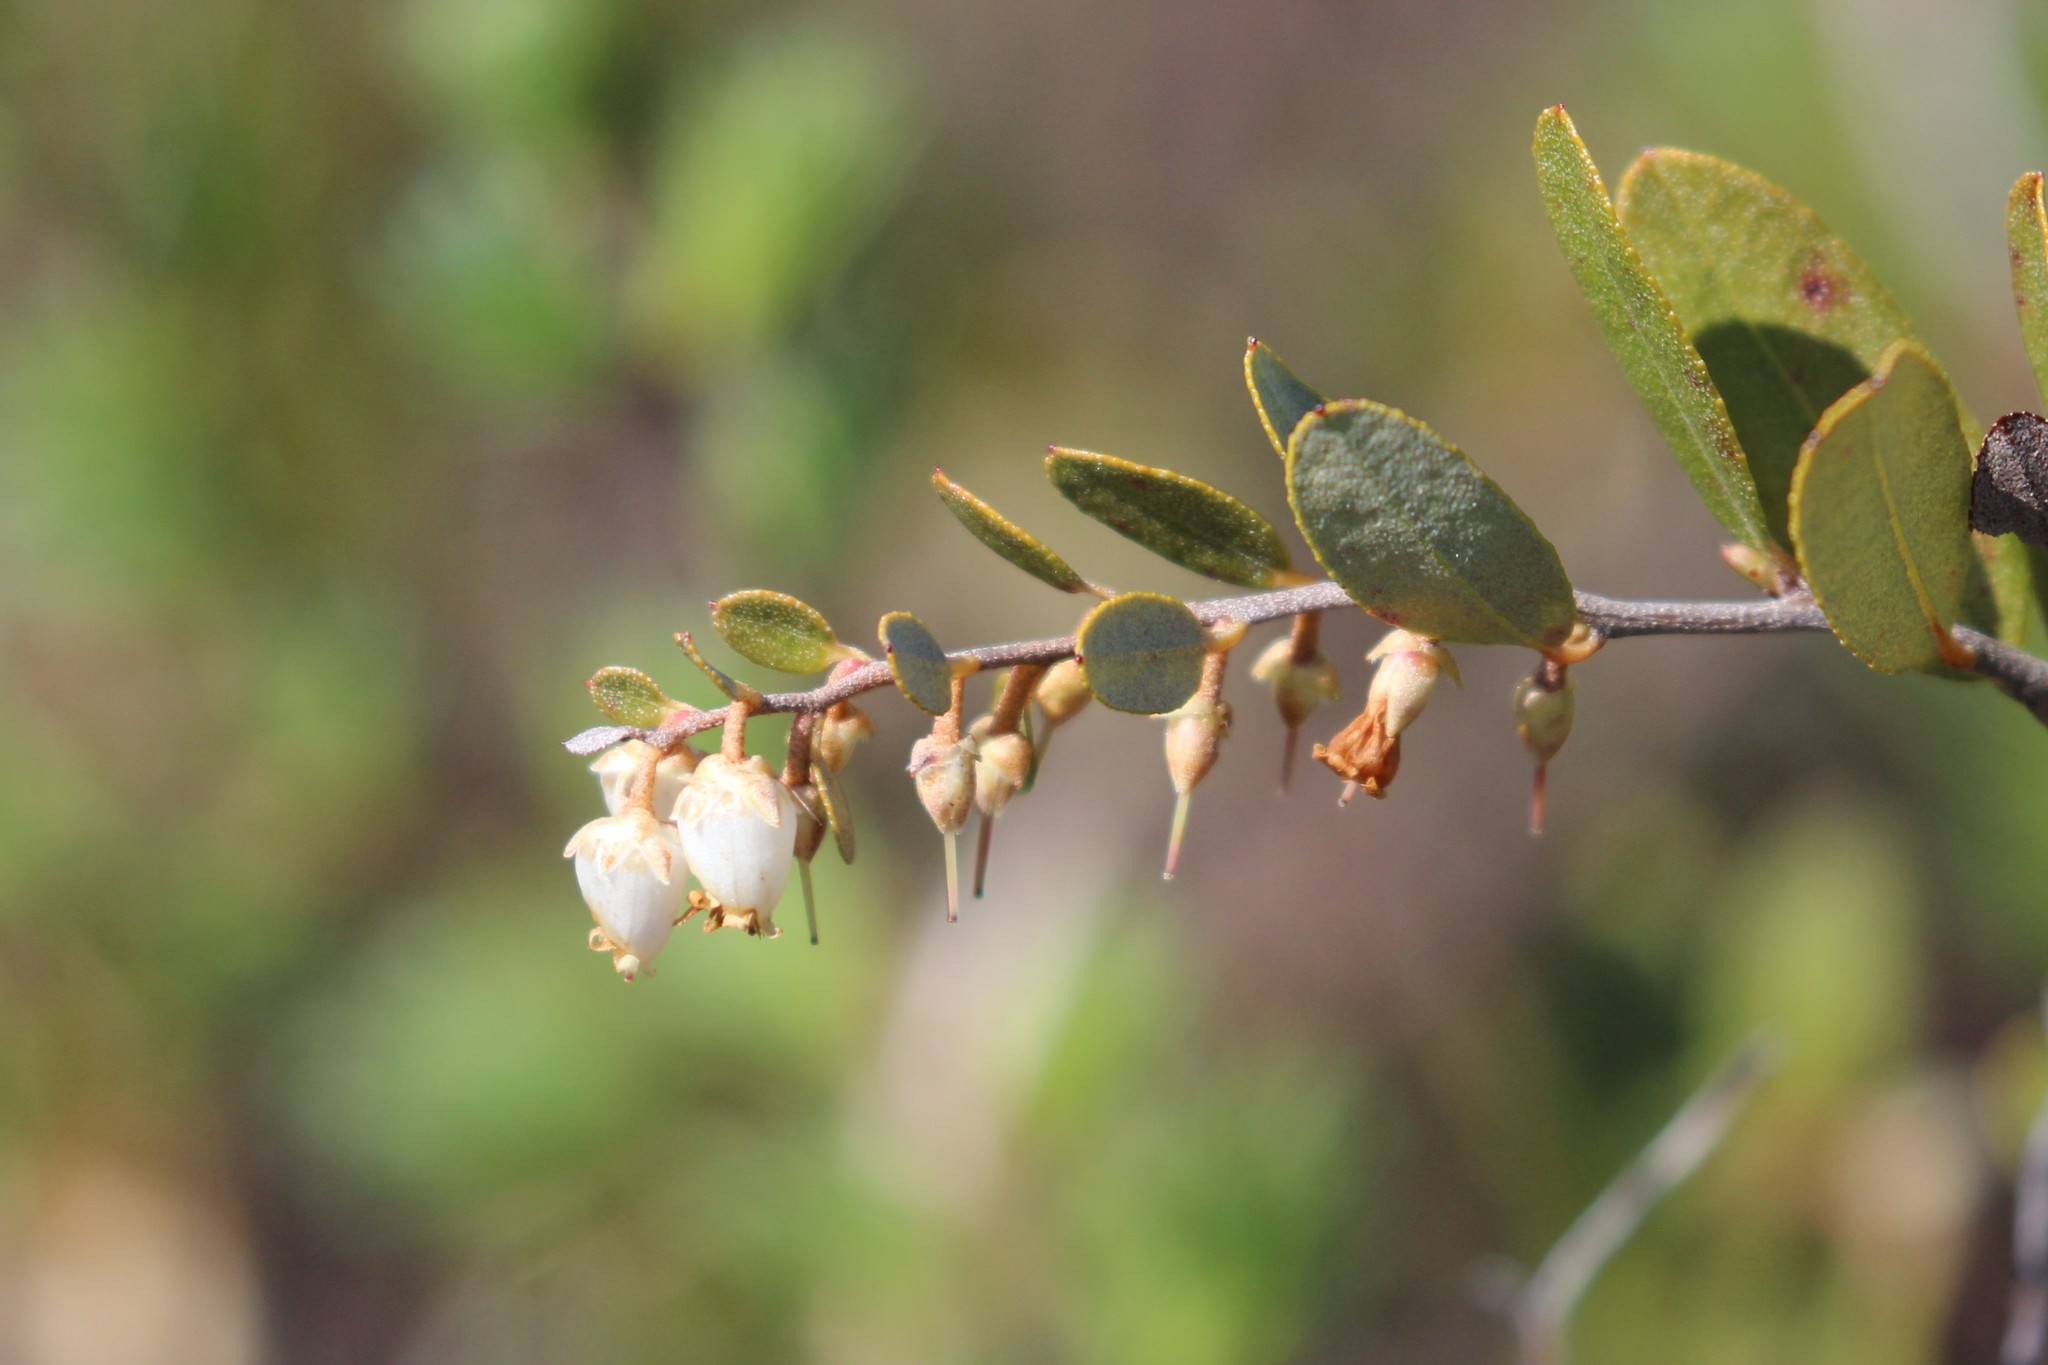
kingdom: Plantae
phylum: Tracheophyta
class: Magnoliopsida
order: Ericales
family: Ericaceae
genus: Chamaedaphne
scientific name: Chamaedaphne calyculata
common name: Leatherleaf
